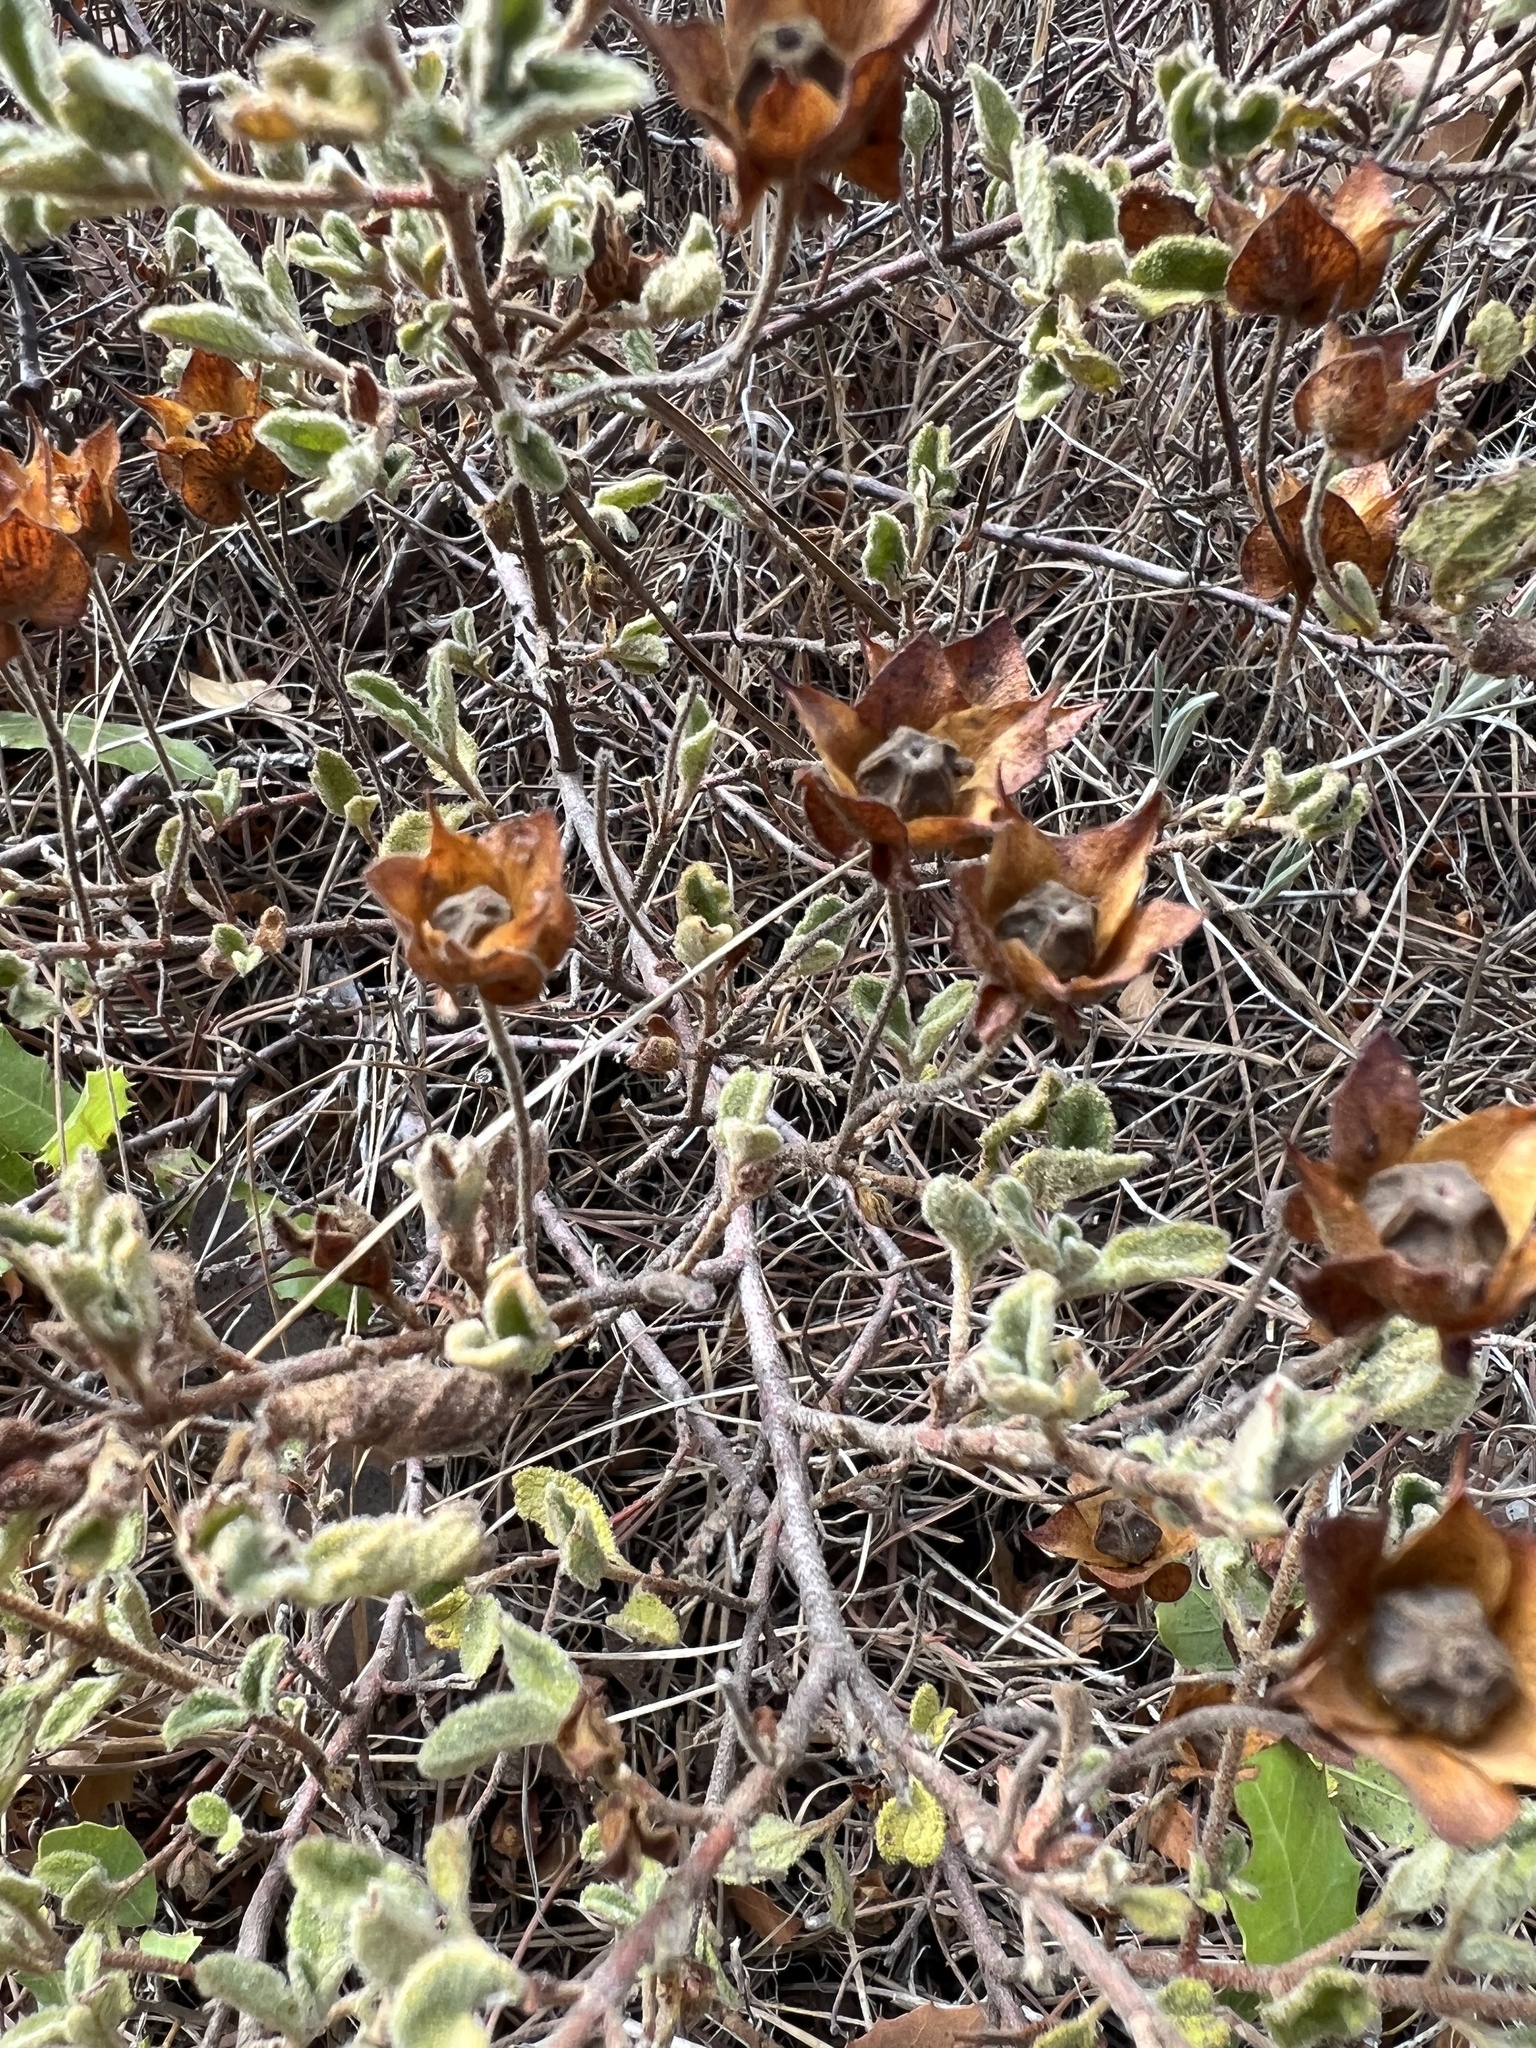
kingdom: Plantae
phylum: Tracheophyta
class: Magnoliopsida
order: Malvales
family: Cistaceae
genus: Cistus
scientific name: Cistus salviifolius
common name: Salvia cistus
